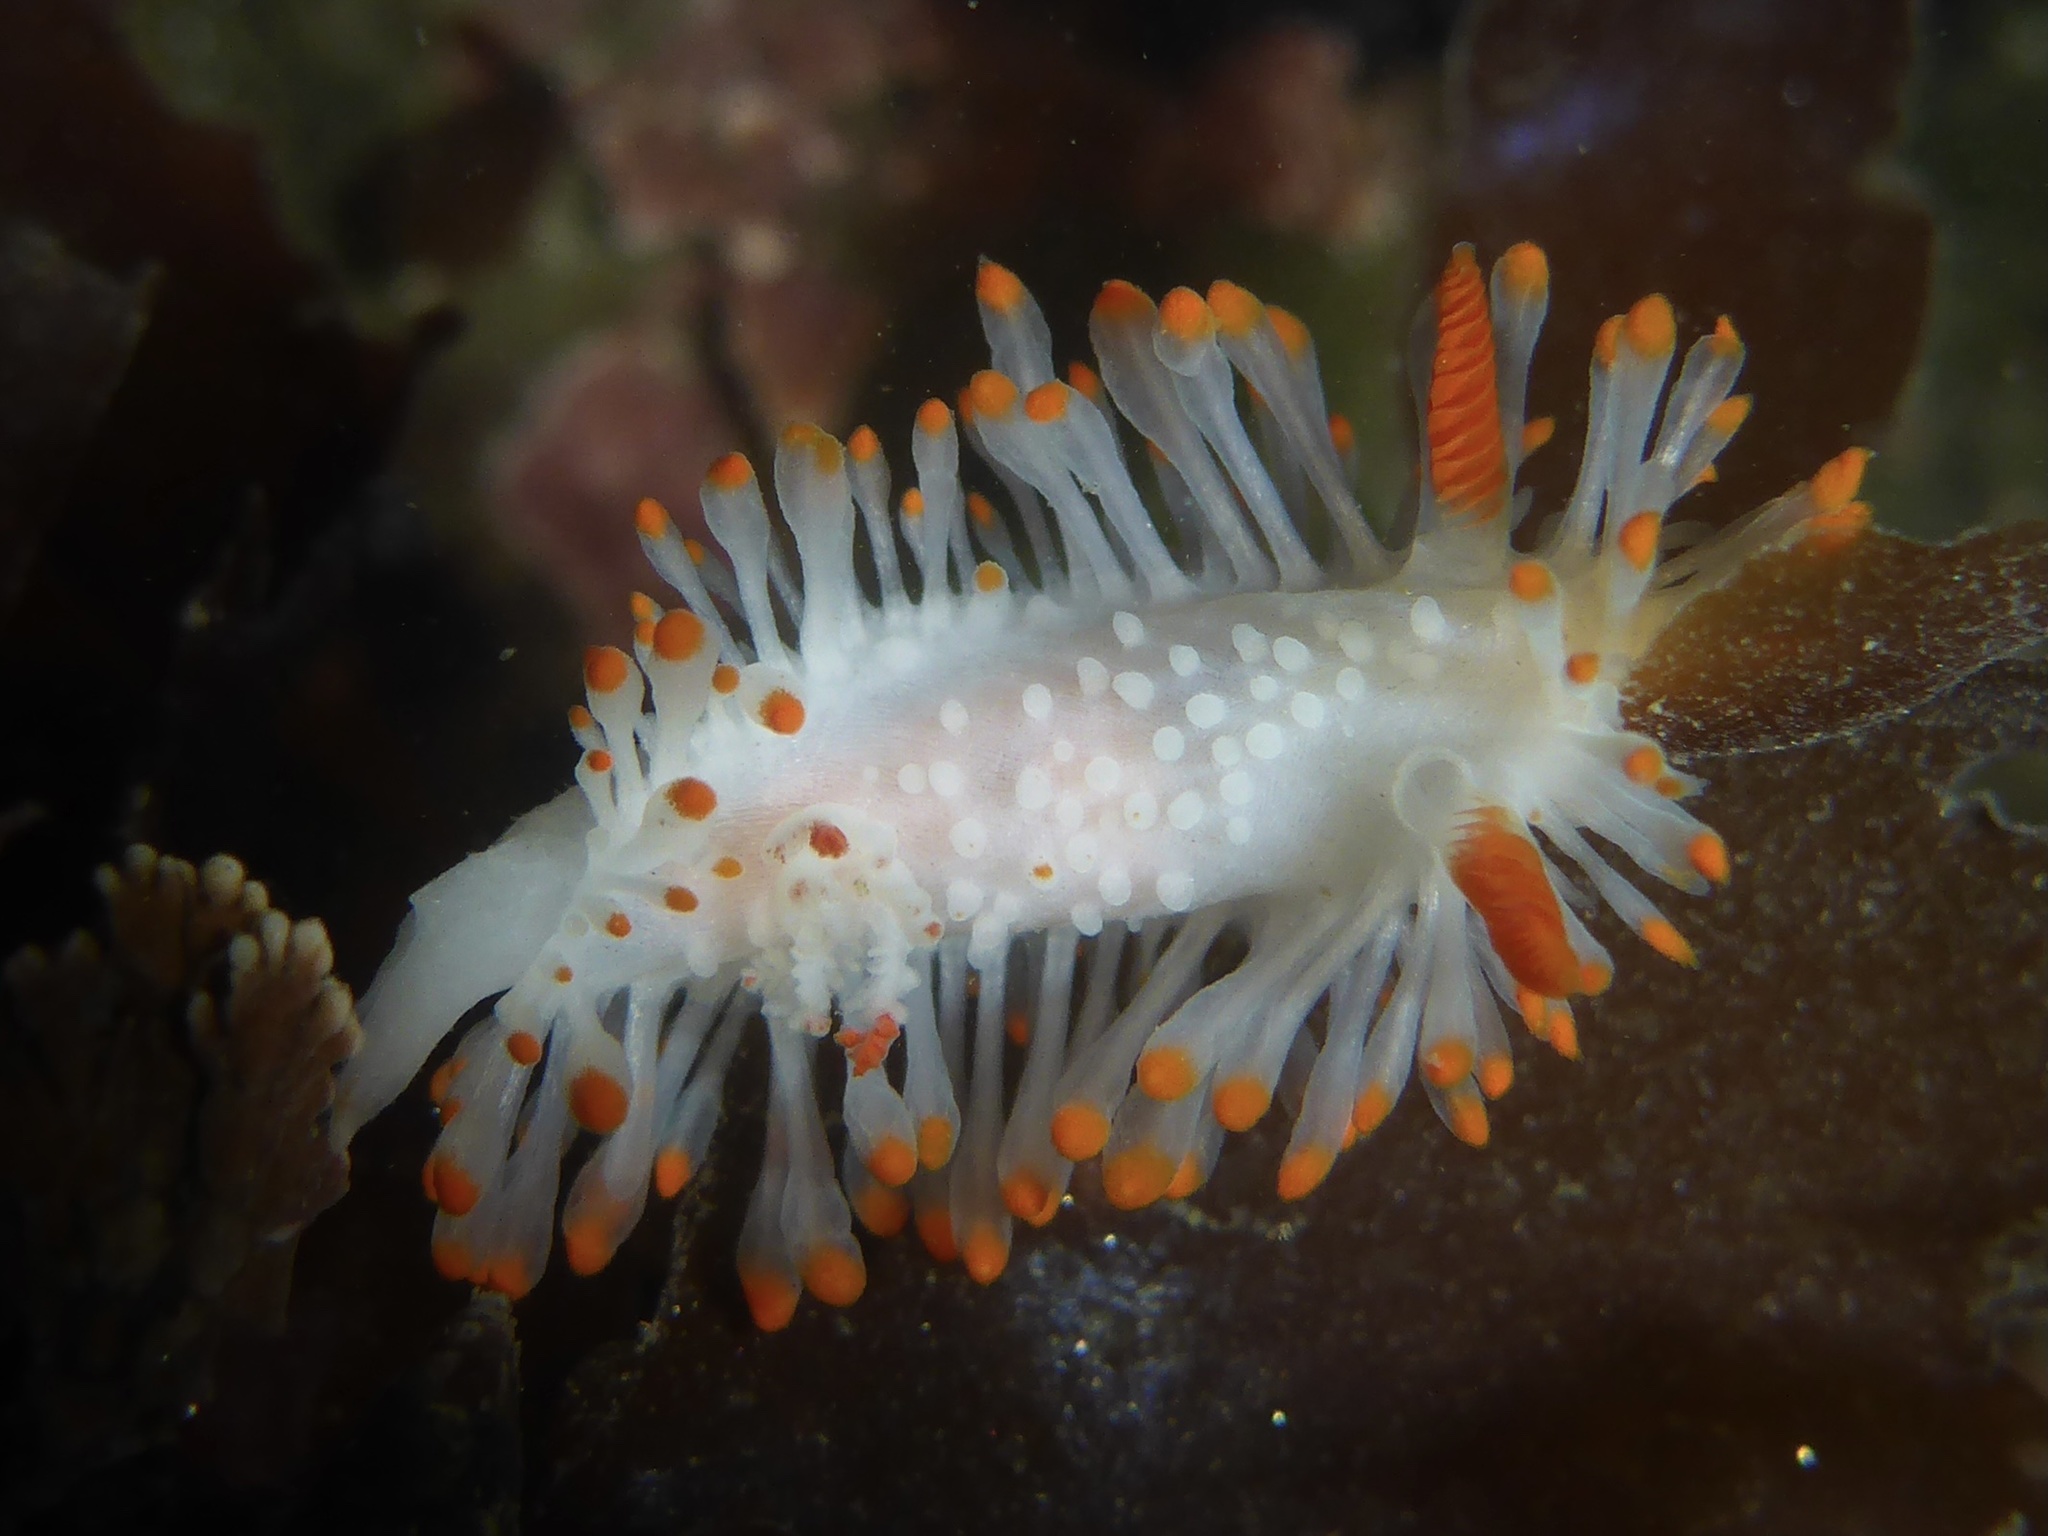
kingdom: Animalia
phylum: Mollusca
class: Gastropoda
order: Nudibranchia
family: Polyceridae
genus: Limacia
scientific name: Limacia cockerelli
